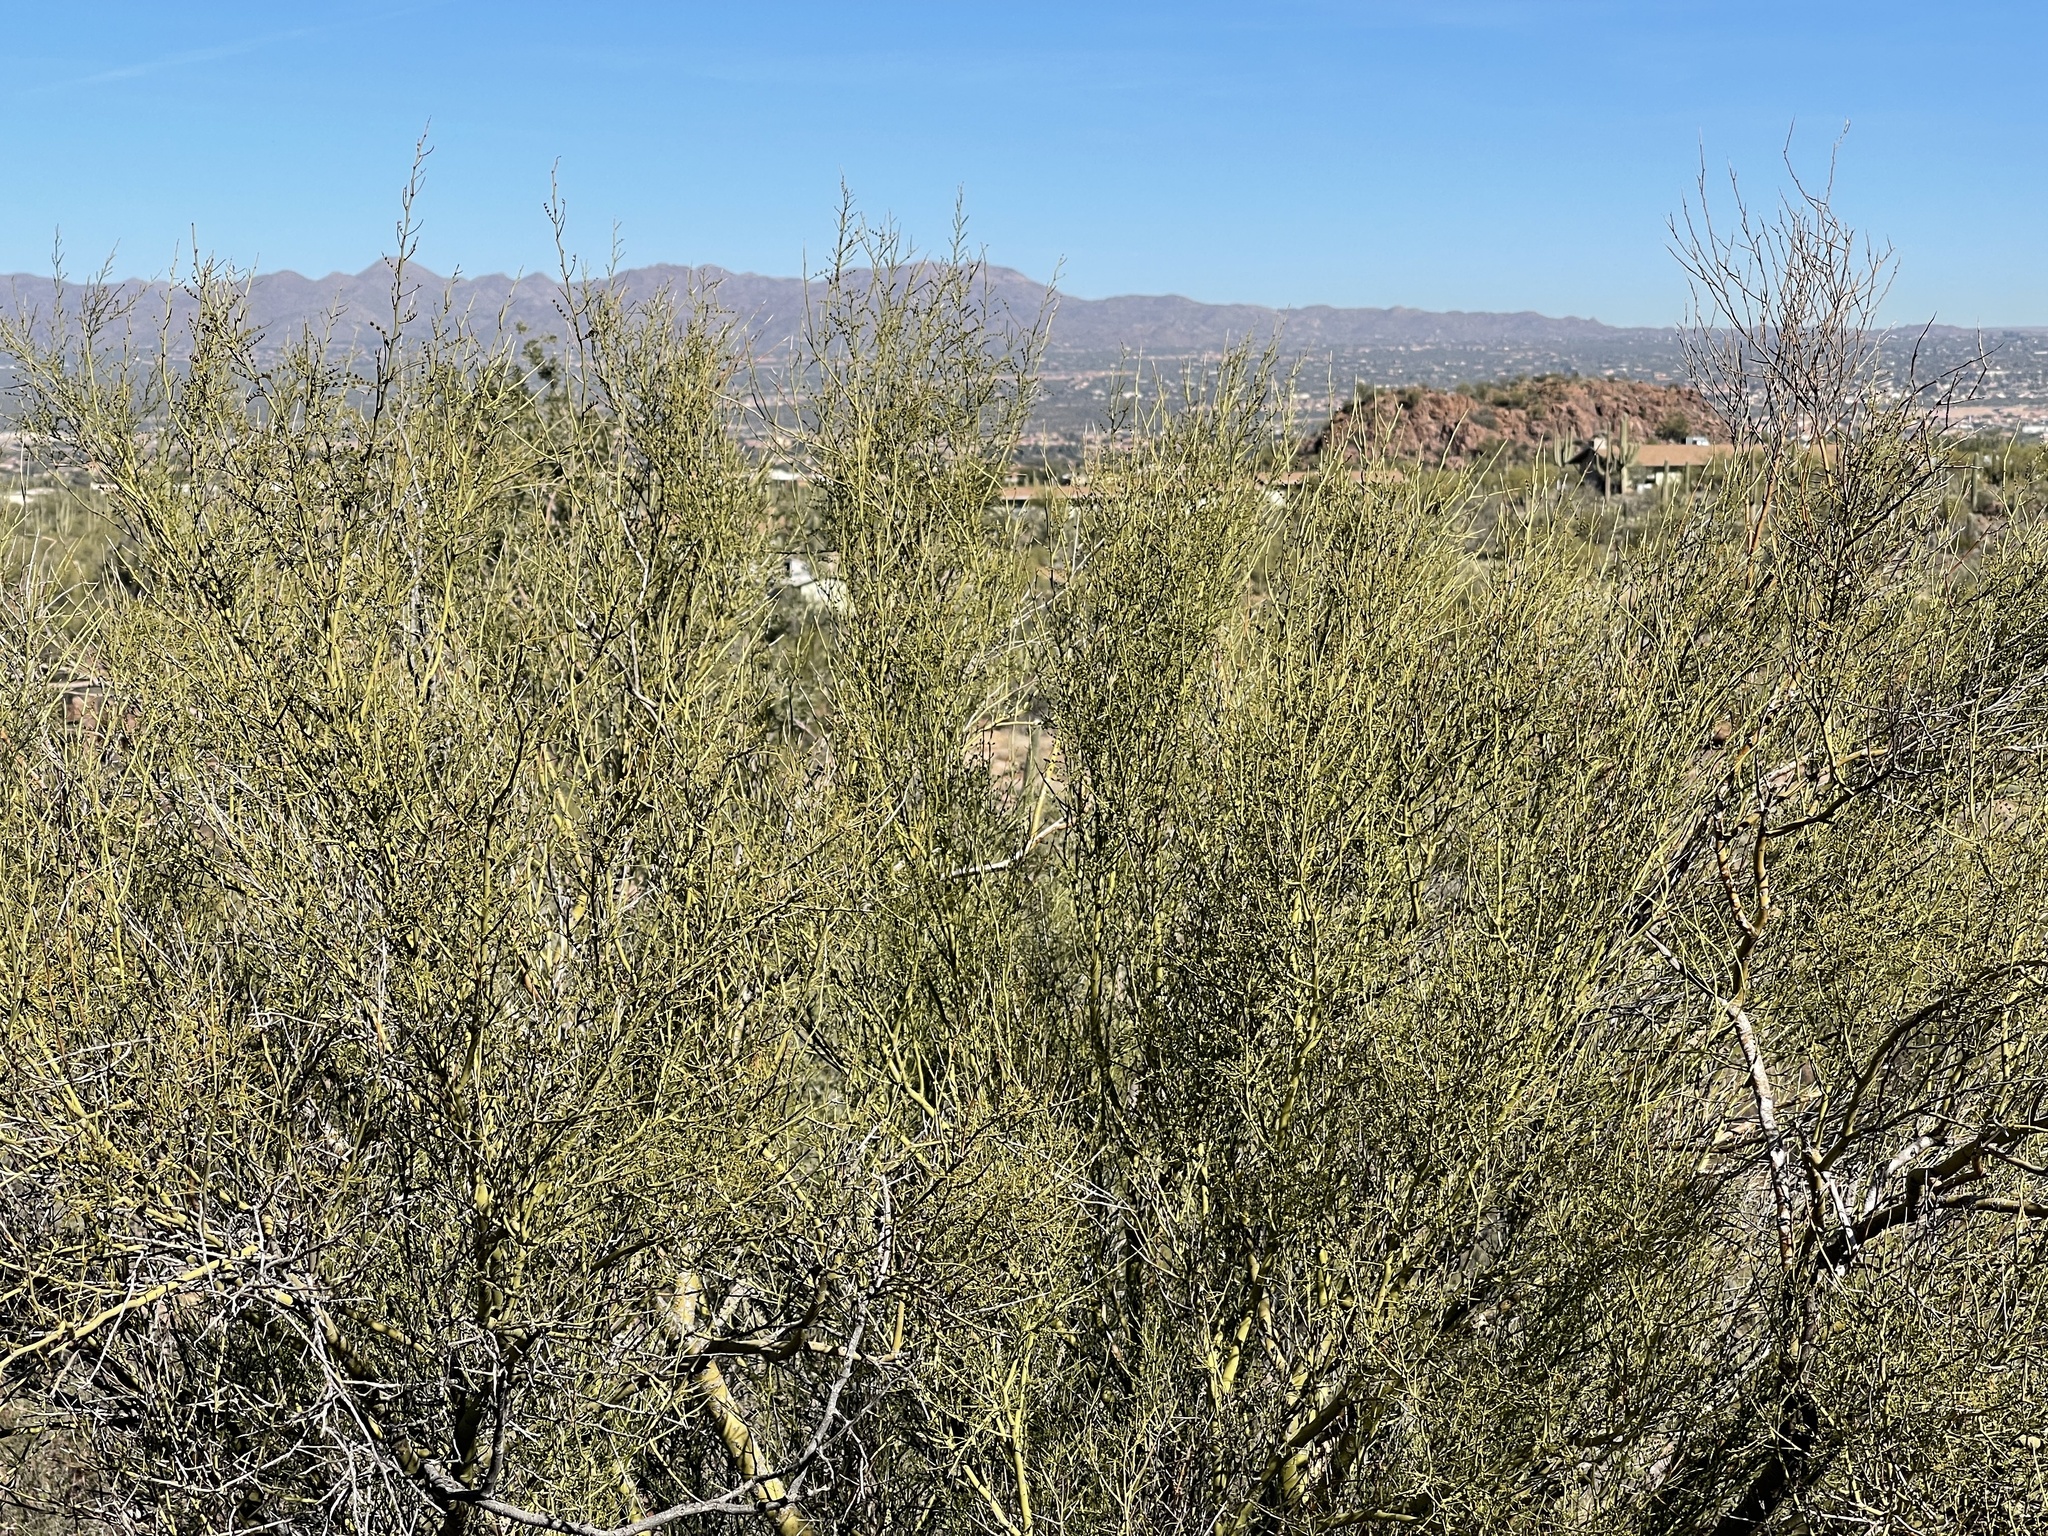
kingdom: Plantae
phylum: Tracheophyta
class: Magnoliopsida
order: Fabales
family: Fabaceae
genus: Parkinsonia
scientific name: Parkinsonia microphylla
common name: Yellow paloverde
